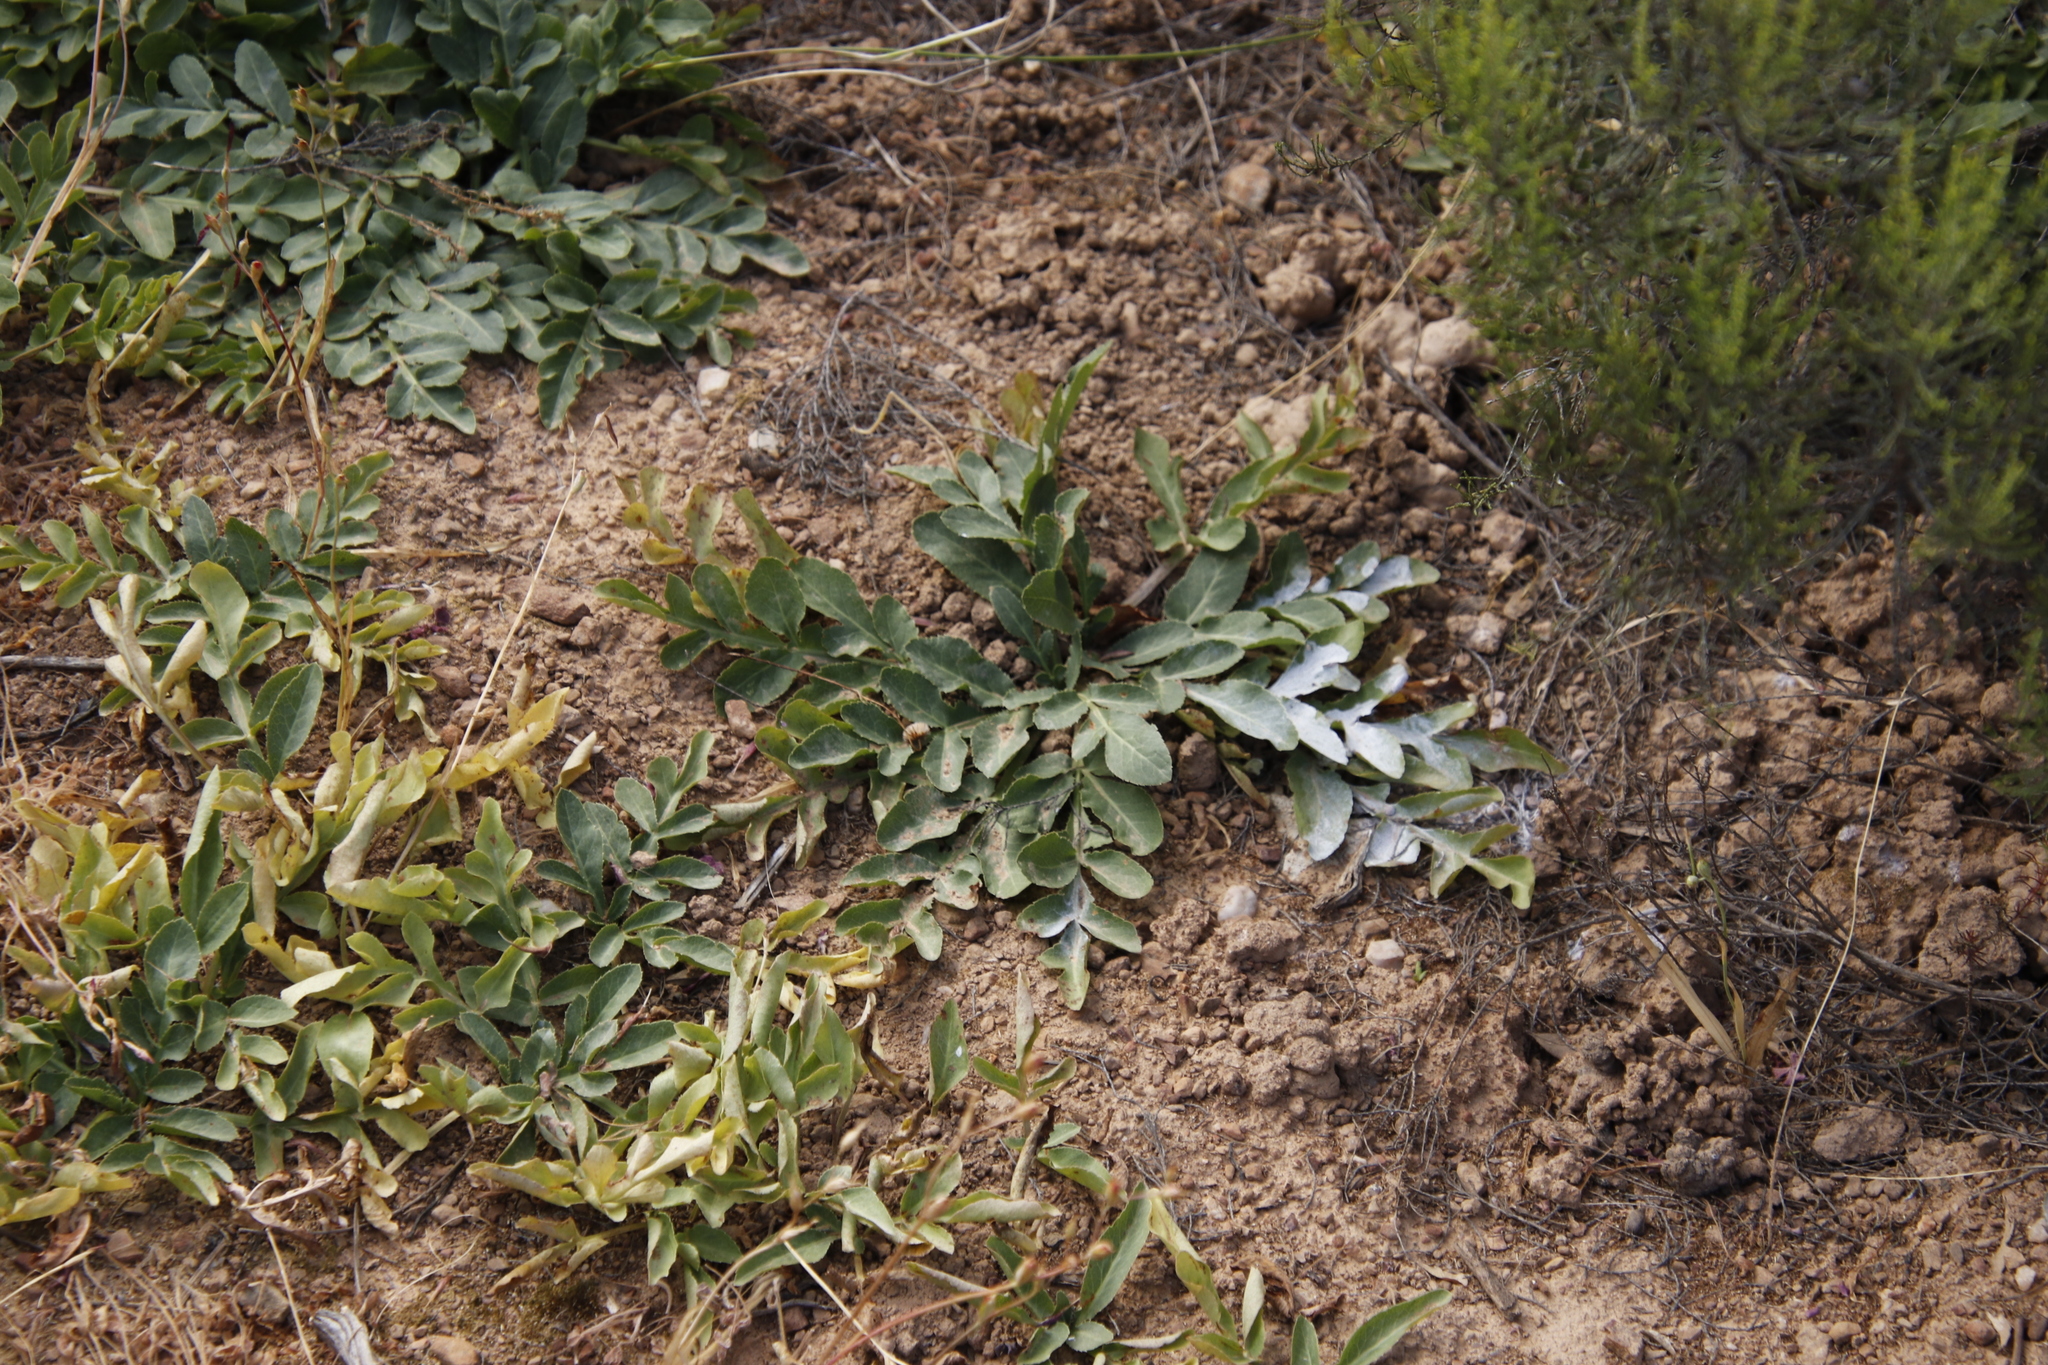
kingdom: Plantae
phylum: Tracheophyta
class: Magnoliopsida
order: Apiales
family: Apiaceae
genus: Lichtensteinia
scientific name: Lichtensteinia obscura
